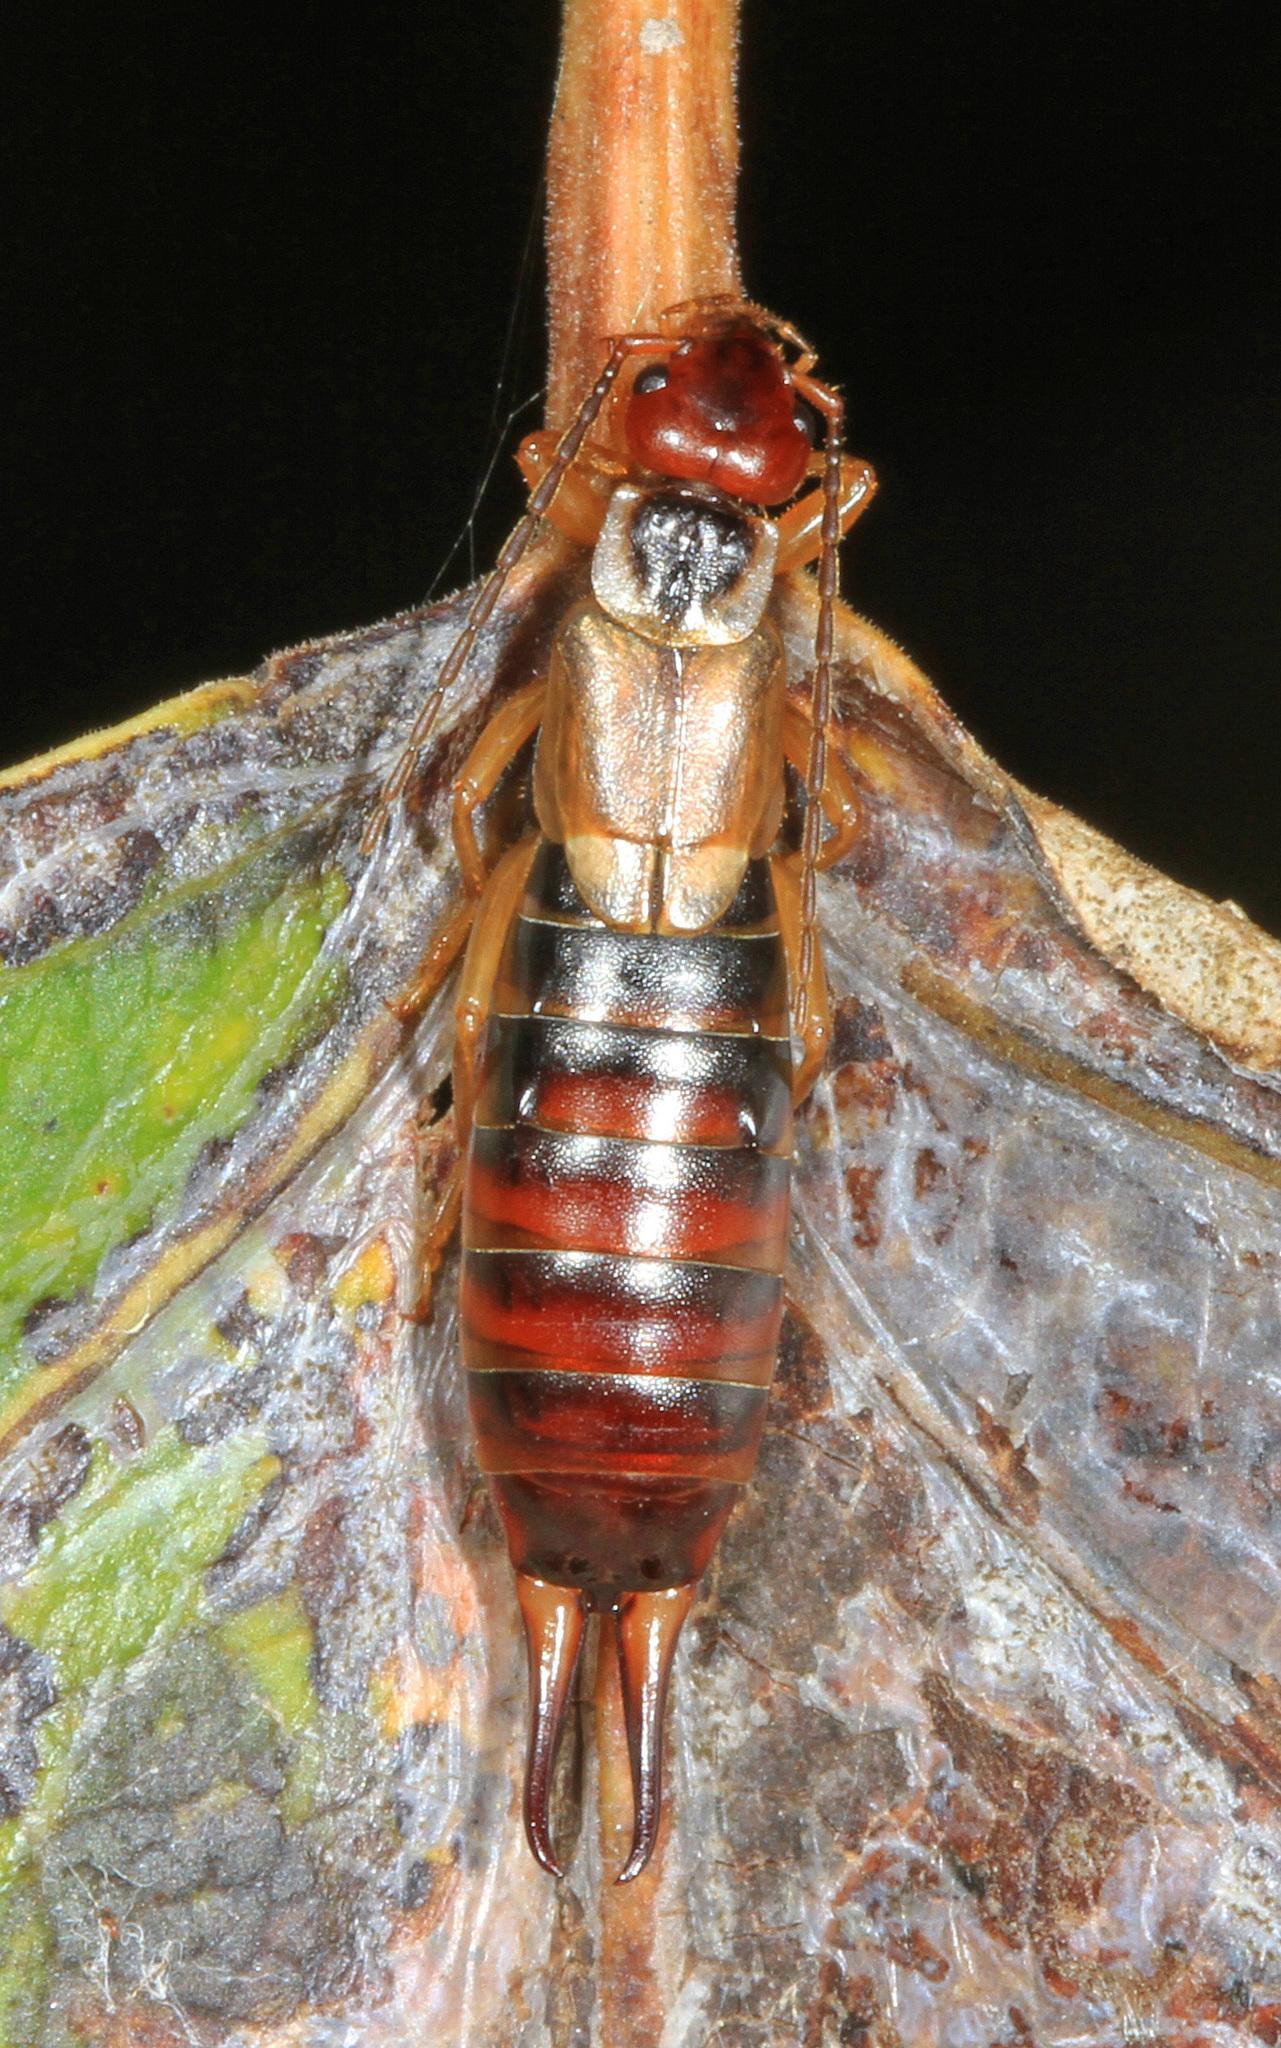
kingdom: Animalia
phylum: Arthropoda
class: Insecta
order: Dermaptera
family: Forficulidae
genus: Forficula
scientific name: Forficula
